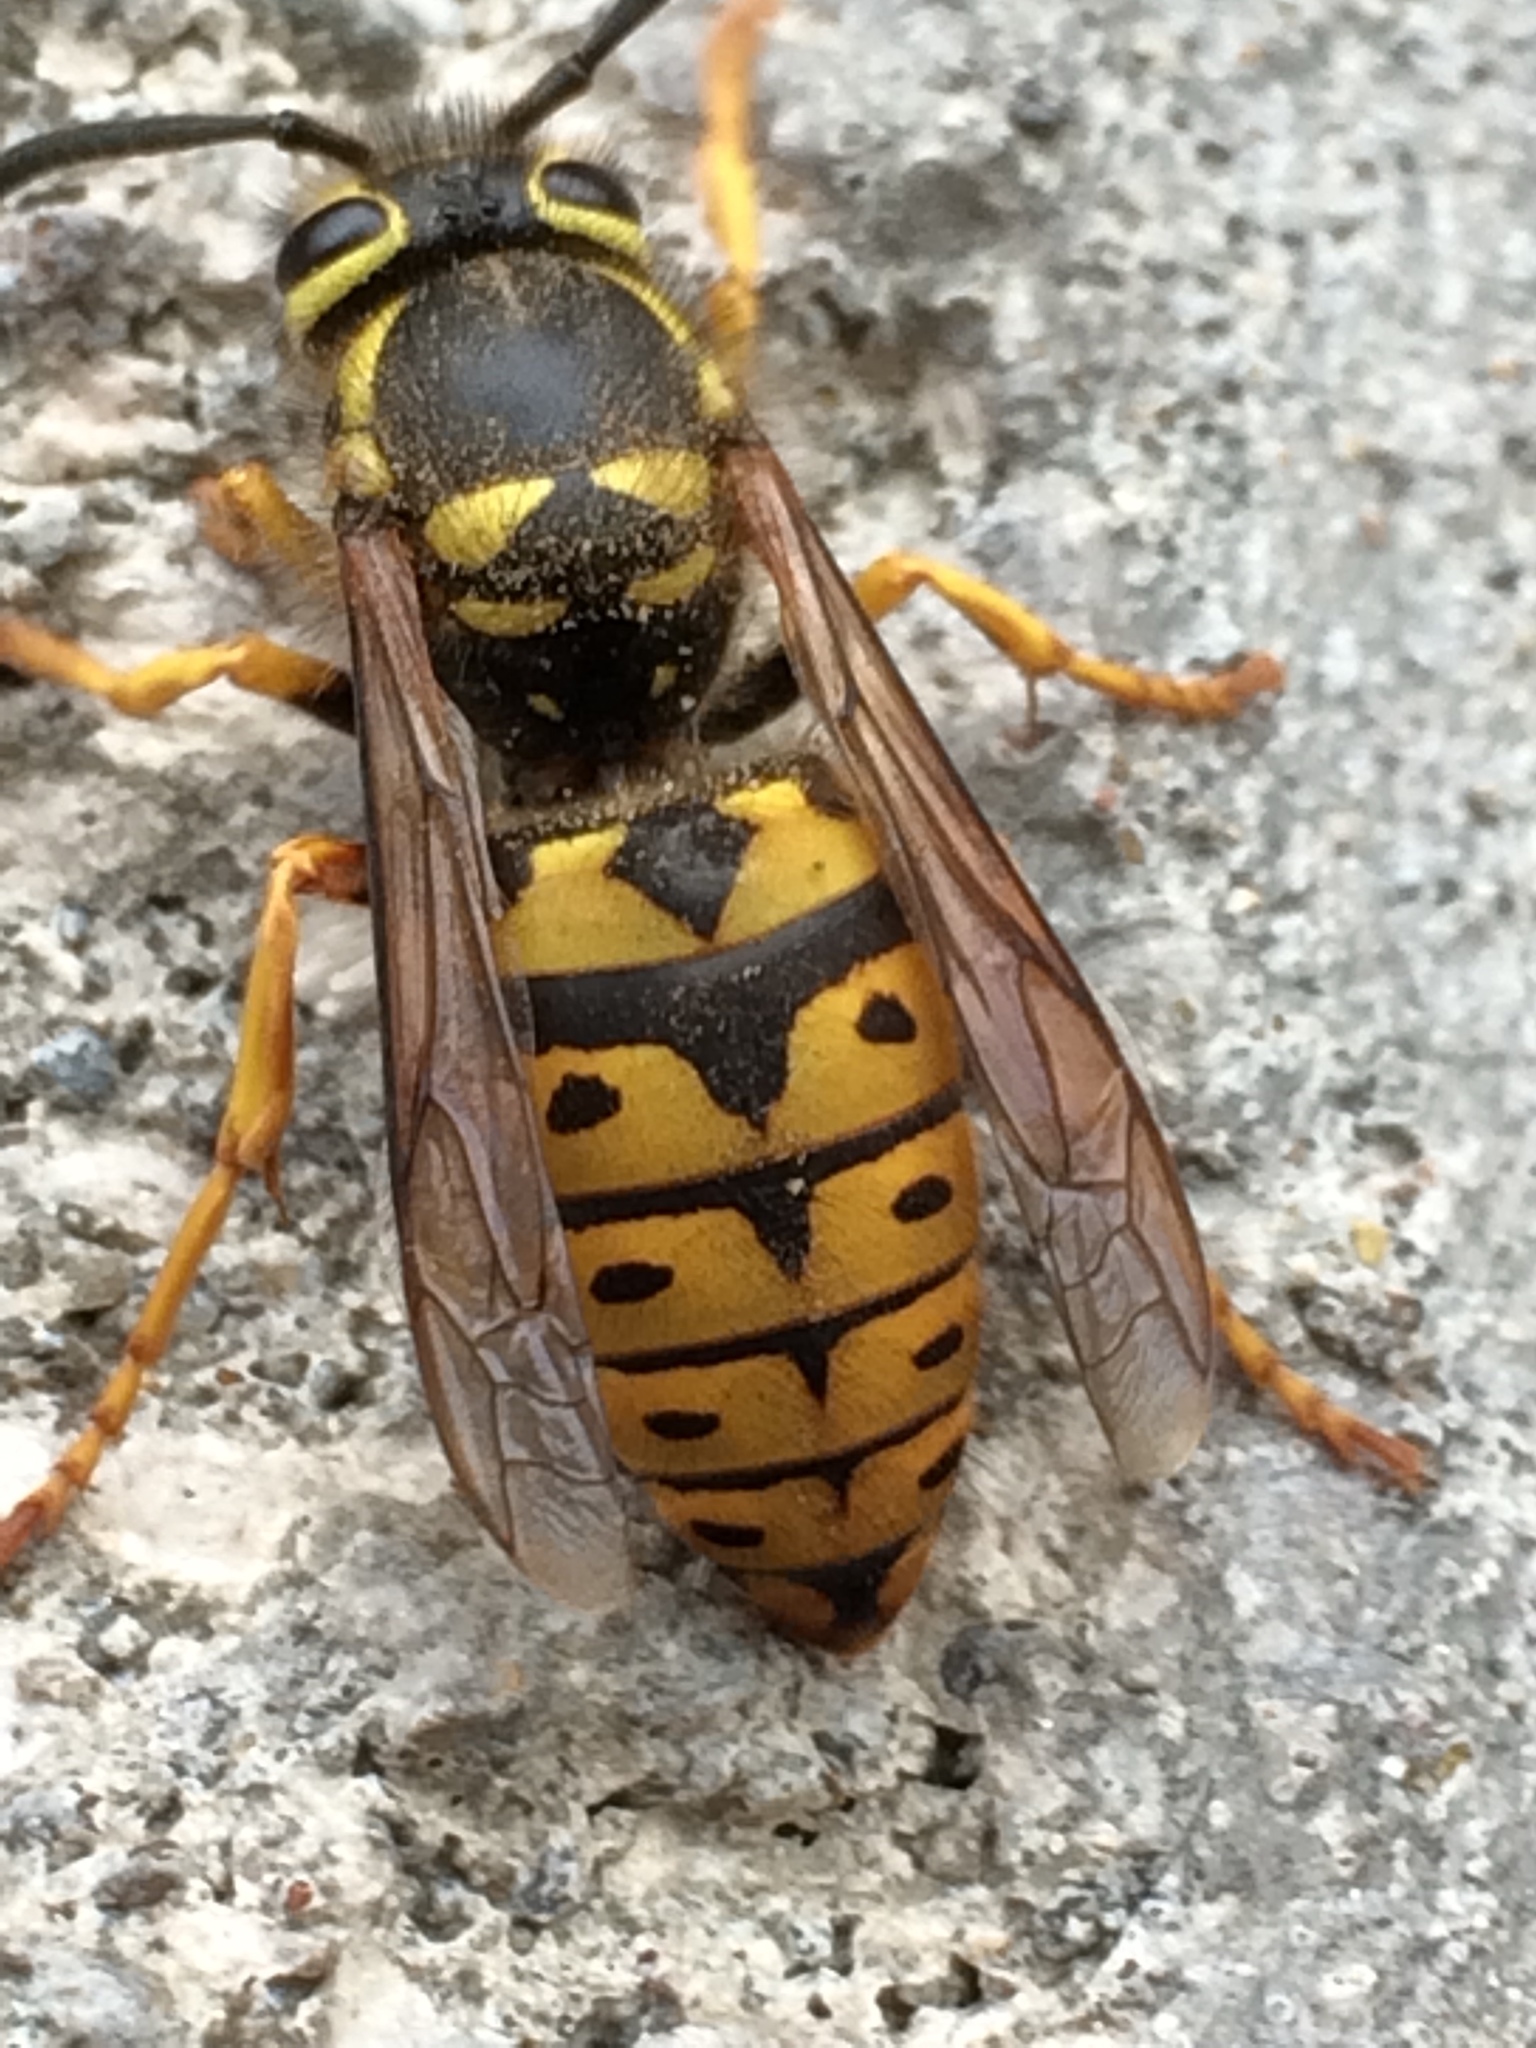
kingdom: Animalia
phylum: Arthropoda
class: Insecta
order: Hymenoptera
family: Vespidae
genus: Vespula
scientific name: Vespula pensylvanica
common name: Western yellowjacket
